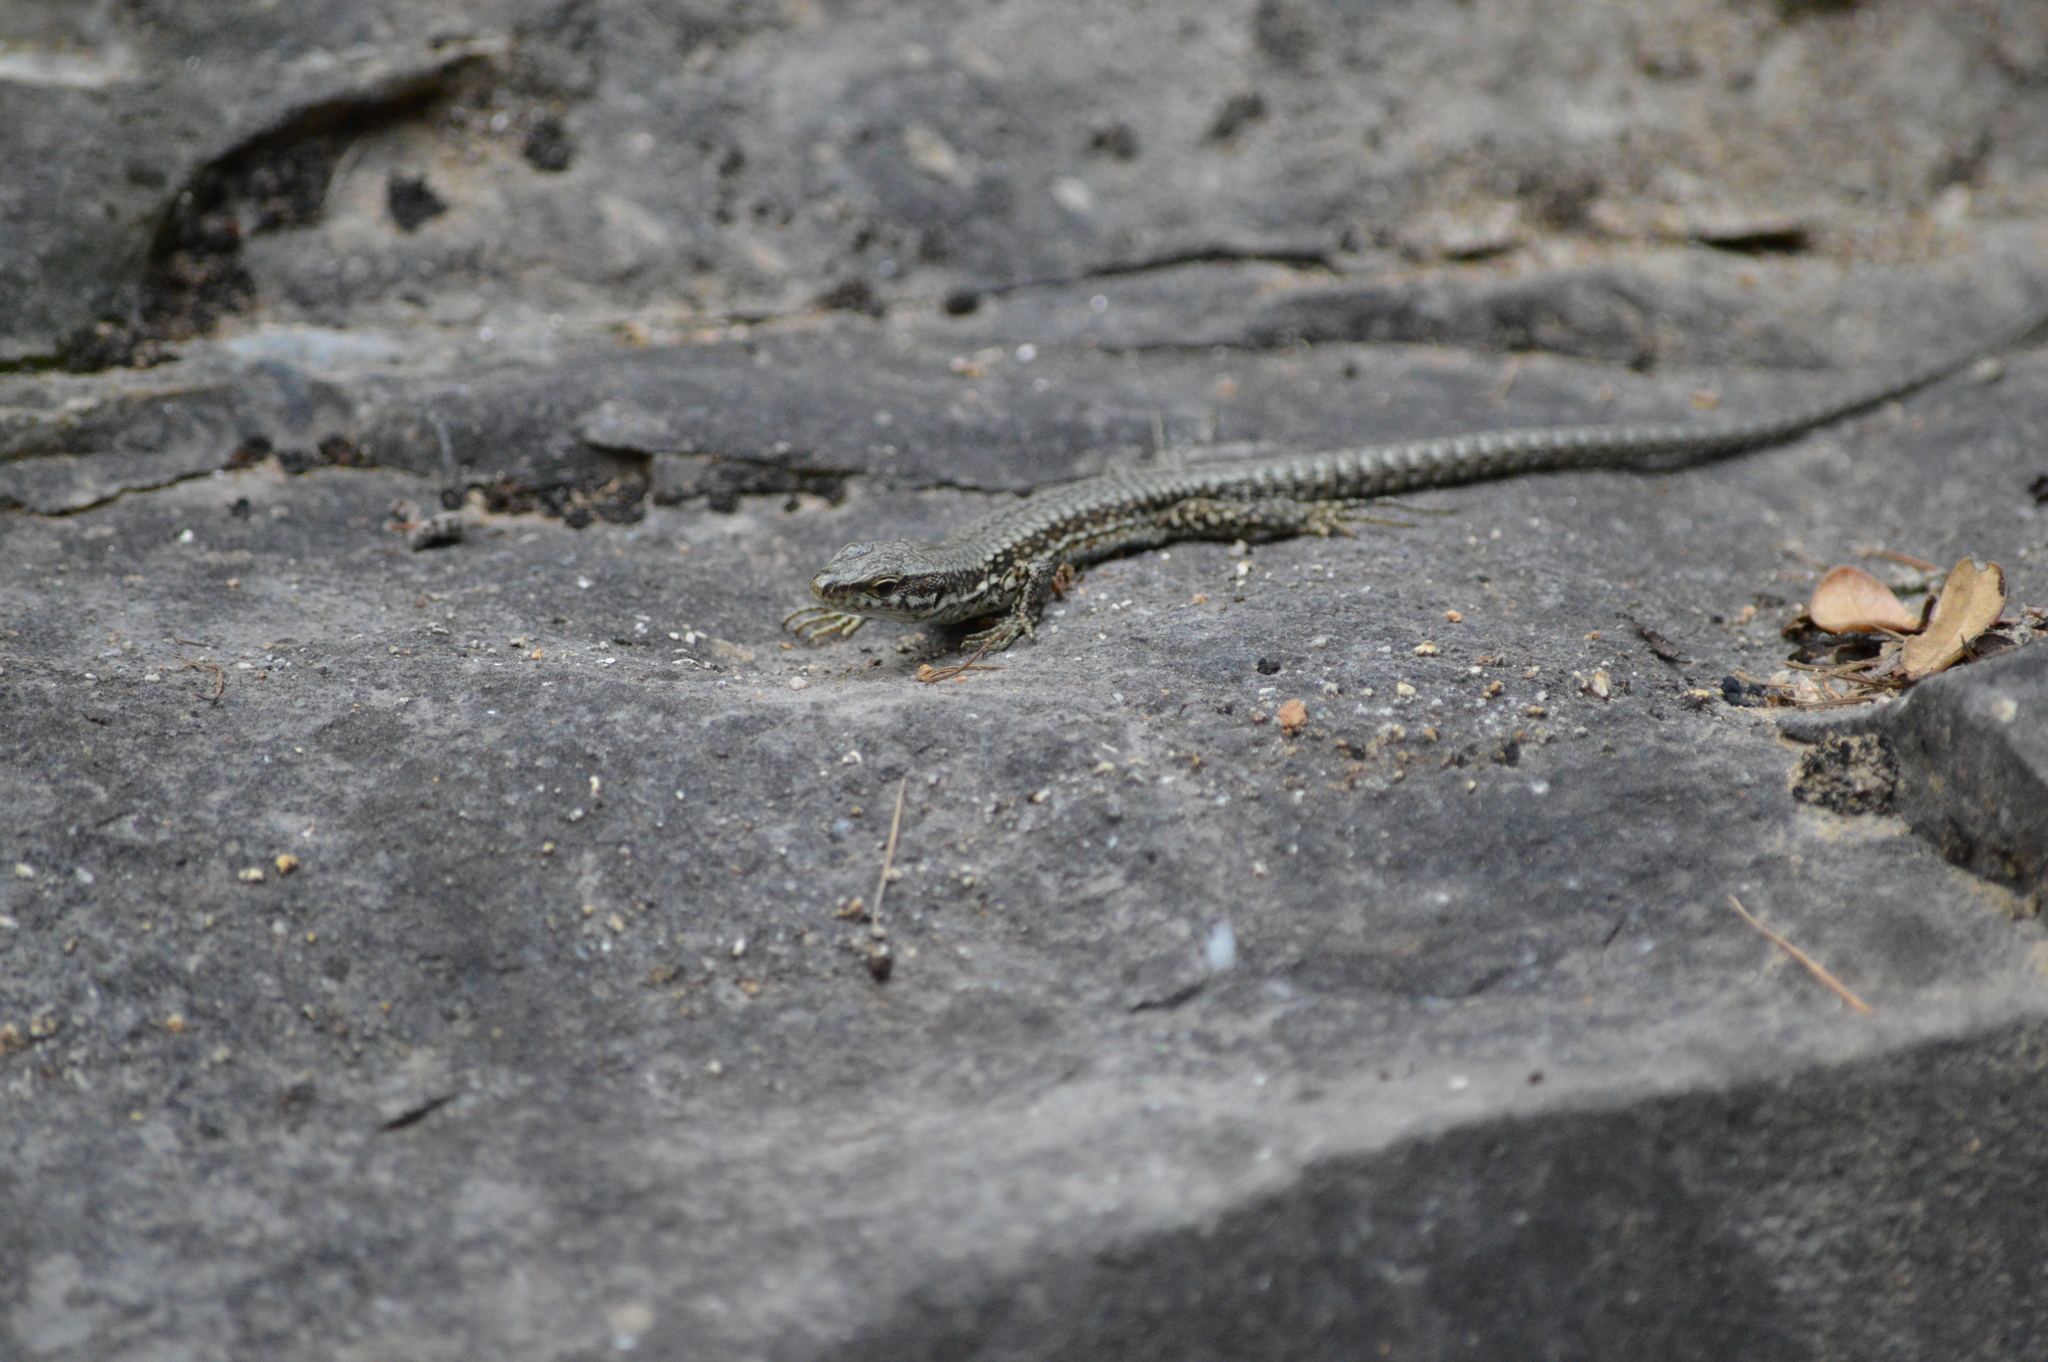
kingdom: Animalia
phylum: Chordata
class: Squamata
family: Lacertidae
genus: Podarcis
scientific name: Podarcis muralis
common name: Common wall lizard
